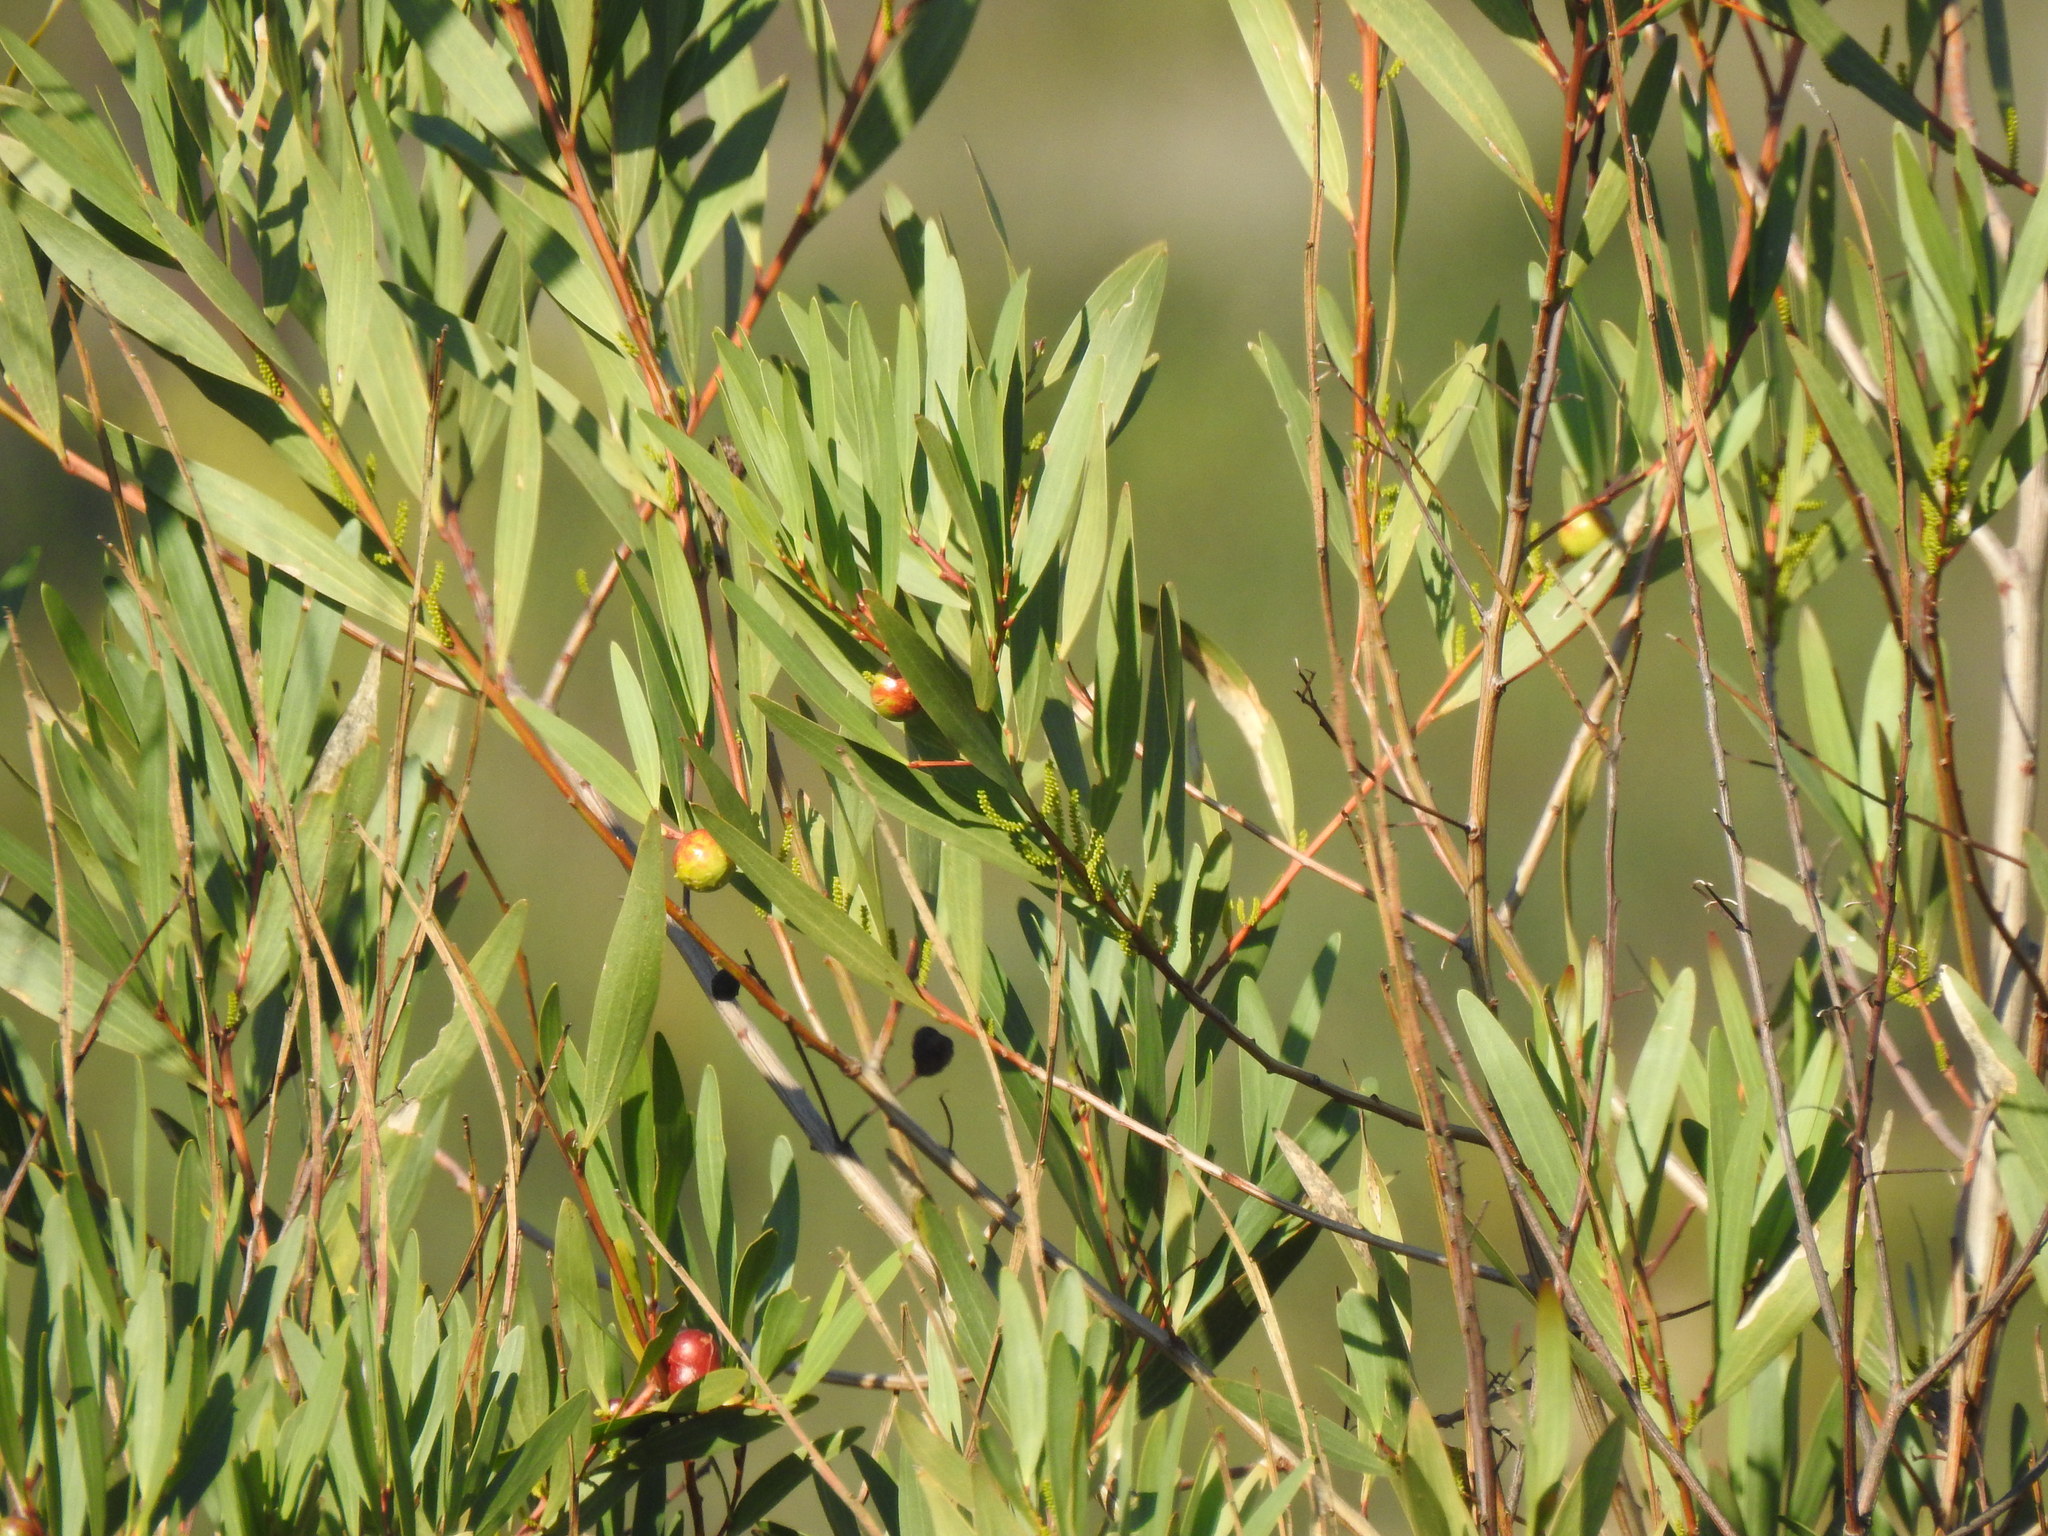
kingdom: Plantae
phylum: Tracheophyta
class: Magnoliopsida
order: Fabales
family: Fabaceae
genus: Acacia
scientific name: Acacia longifolia
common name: Sydney golden wattle
